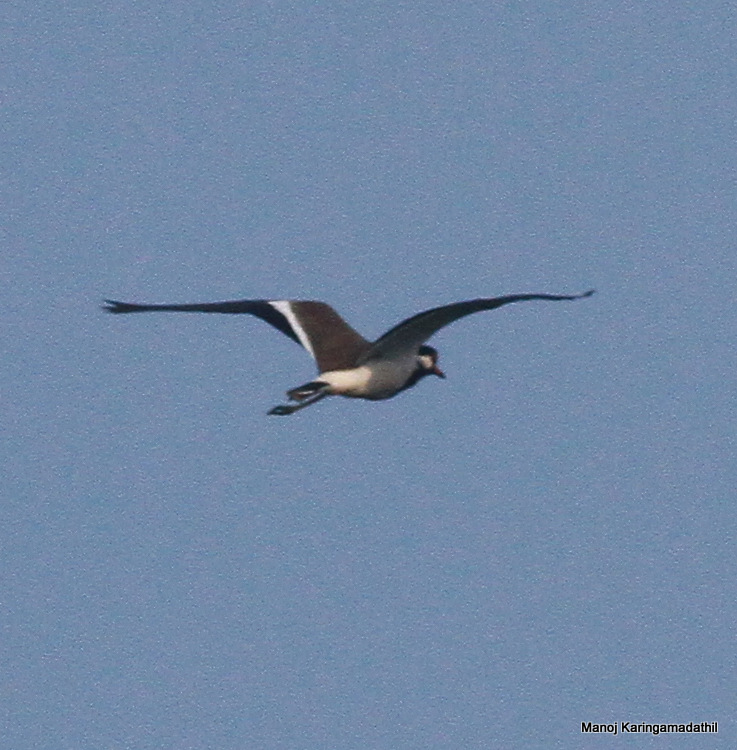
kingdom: Animalia
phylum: Chordata
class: Aves
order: Charadriiformes
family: Charadriidae
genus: Vanellus
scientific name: Vanellus indicus
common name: Red-wattled lapwing
